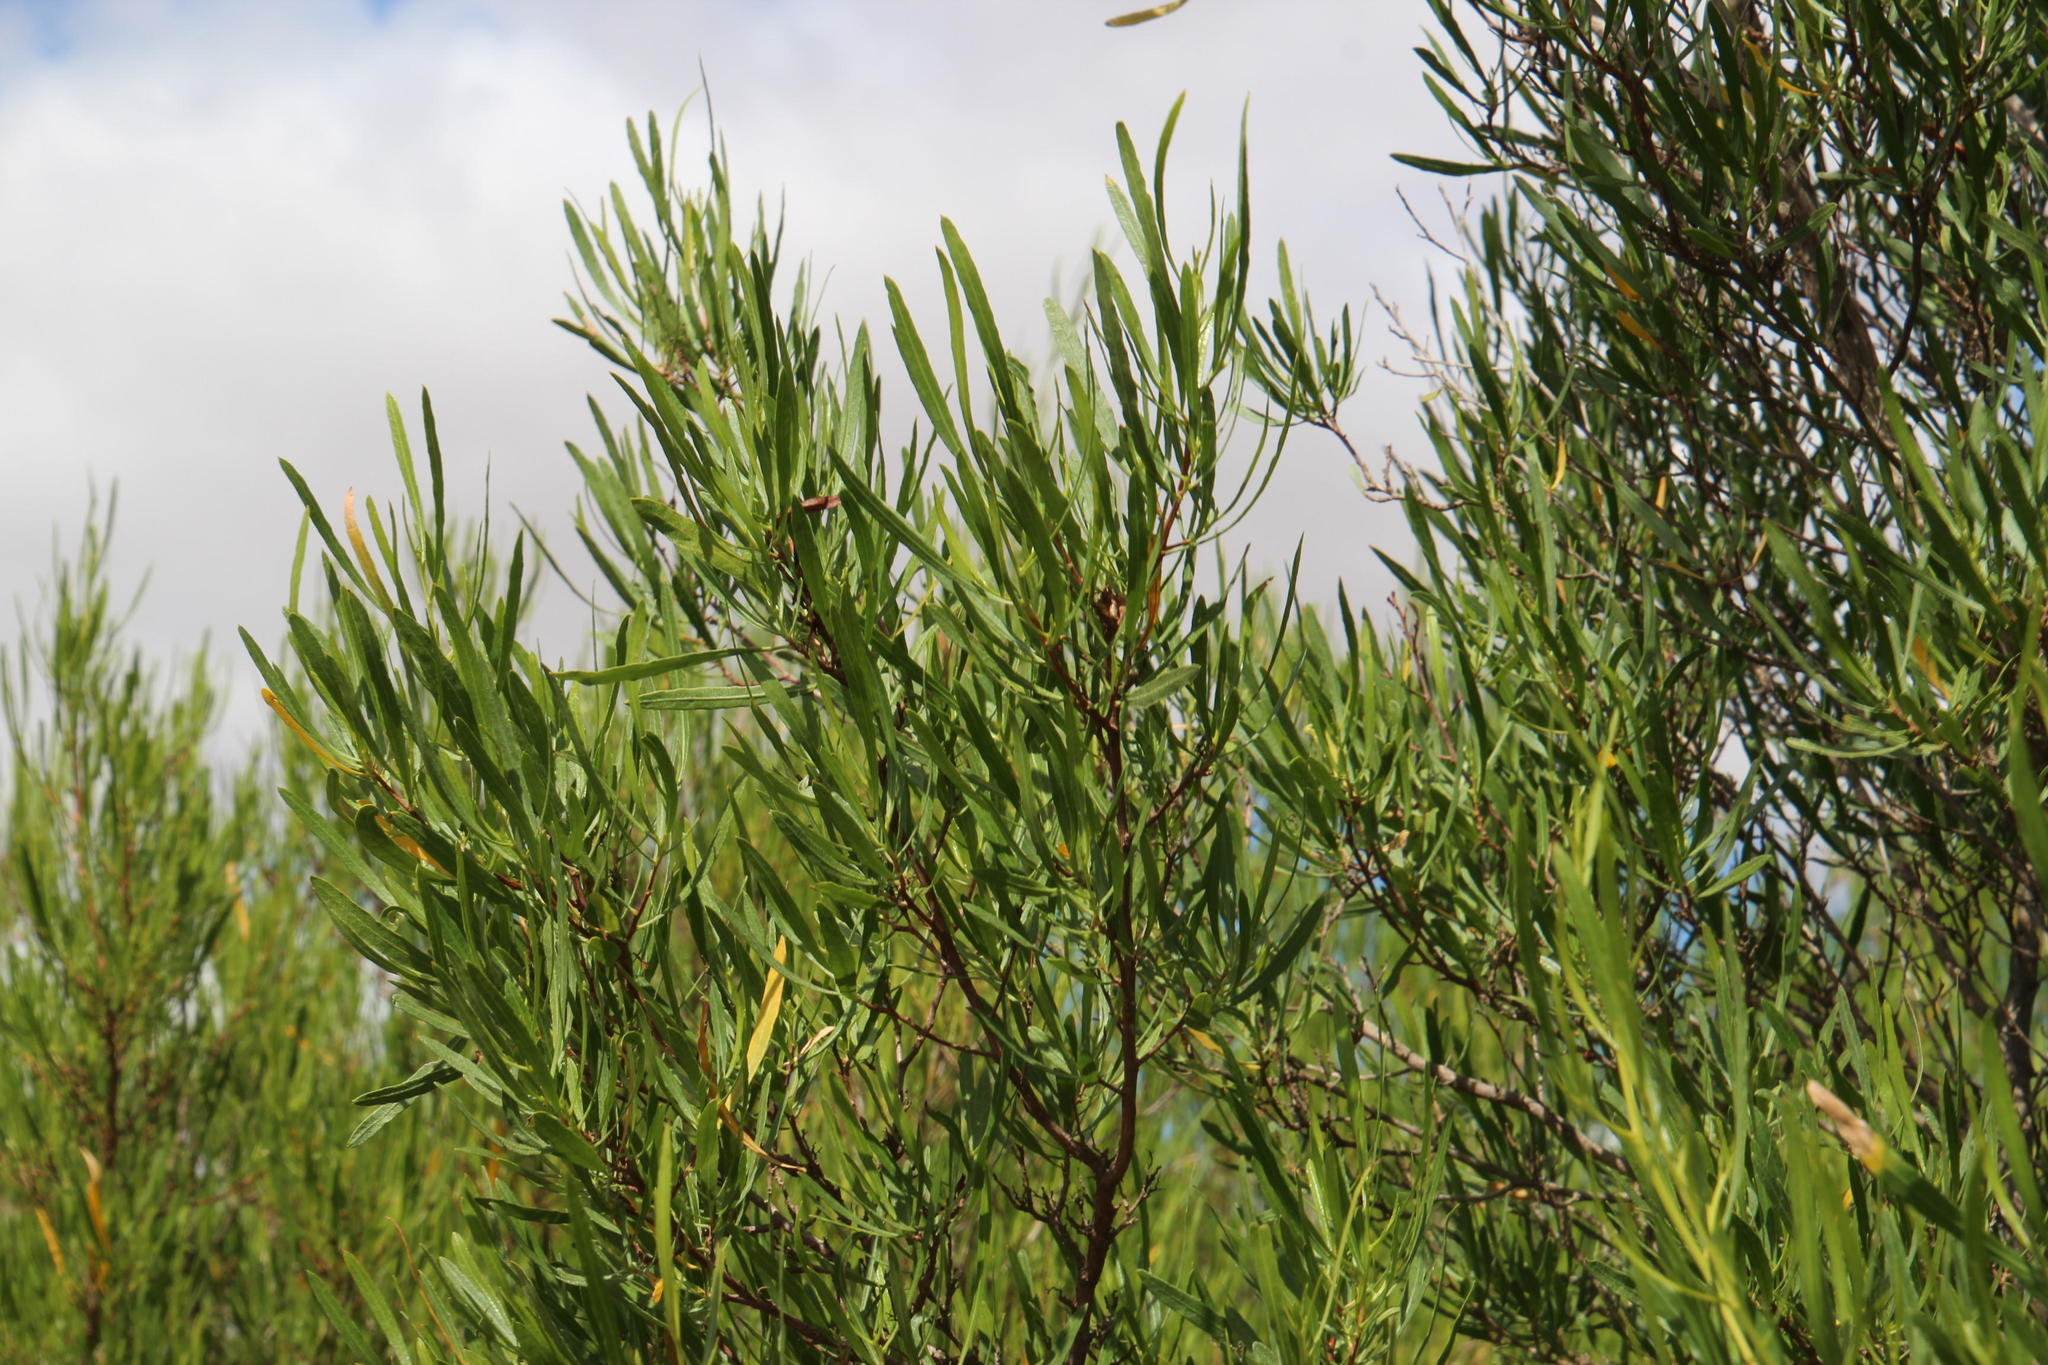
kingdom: Plantae
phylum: Tracheophyta
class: Magnoliopsida
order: Sapindales
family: Sapindaceae
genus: Dodonaea
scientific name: Dodonaea viscosa
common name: Hopbush
